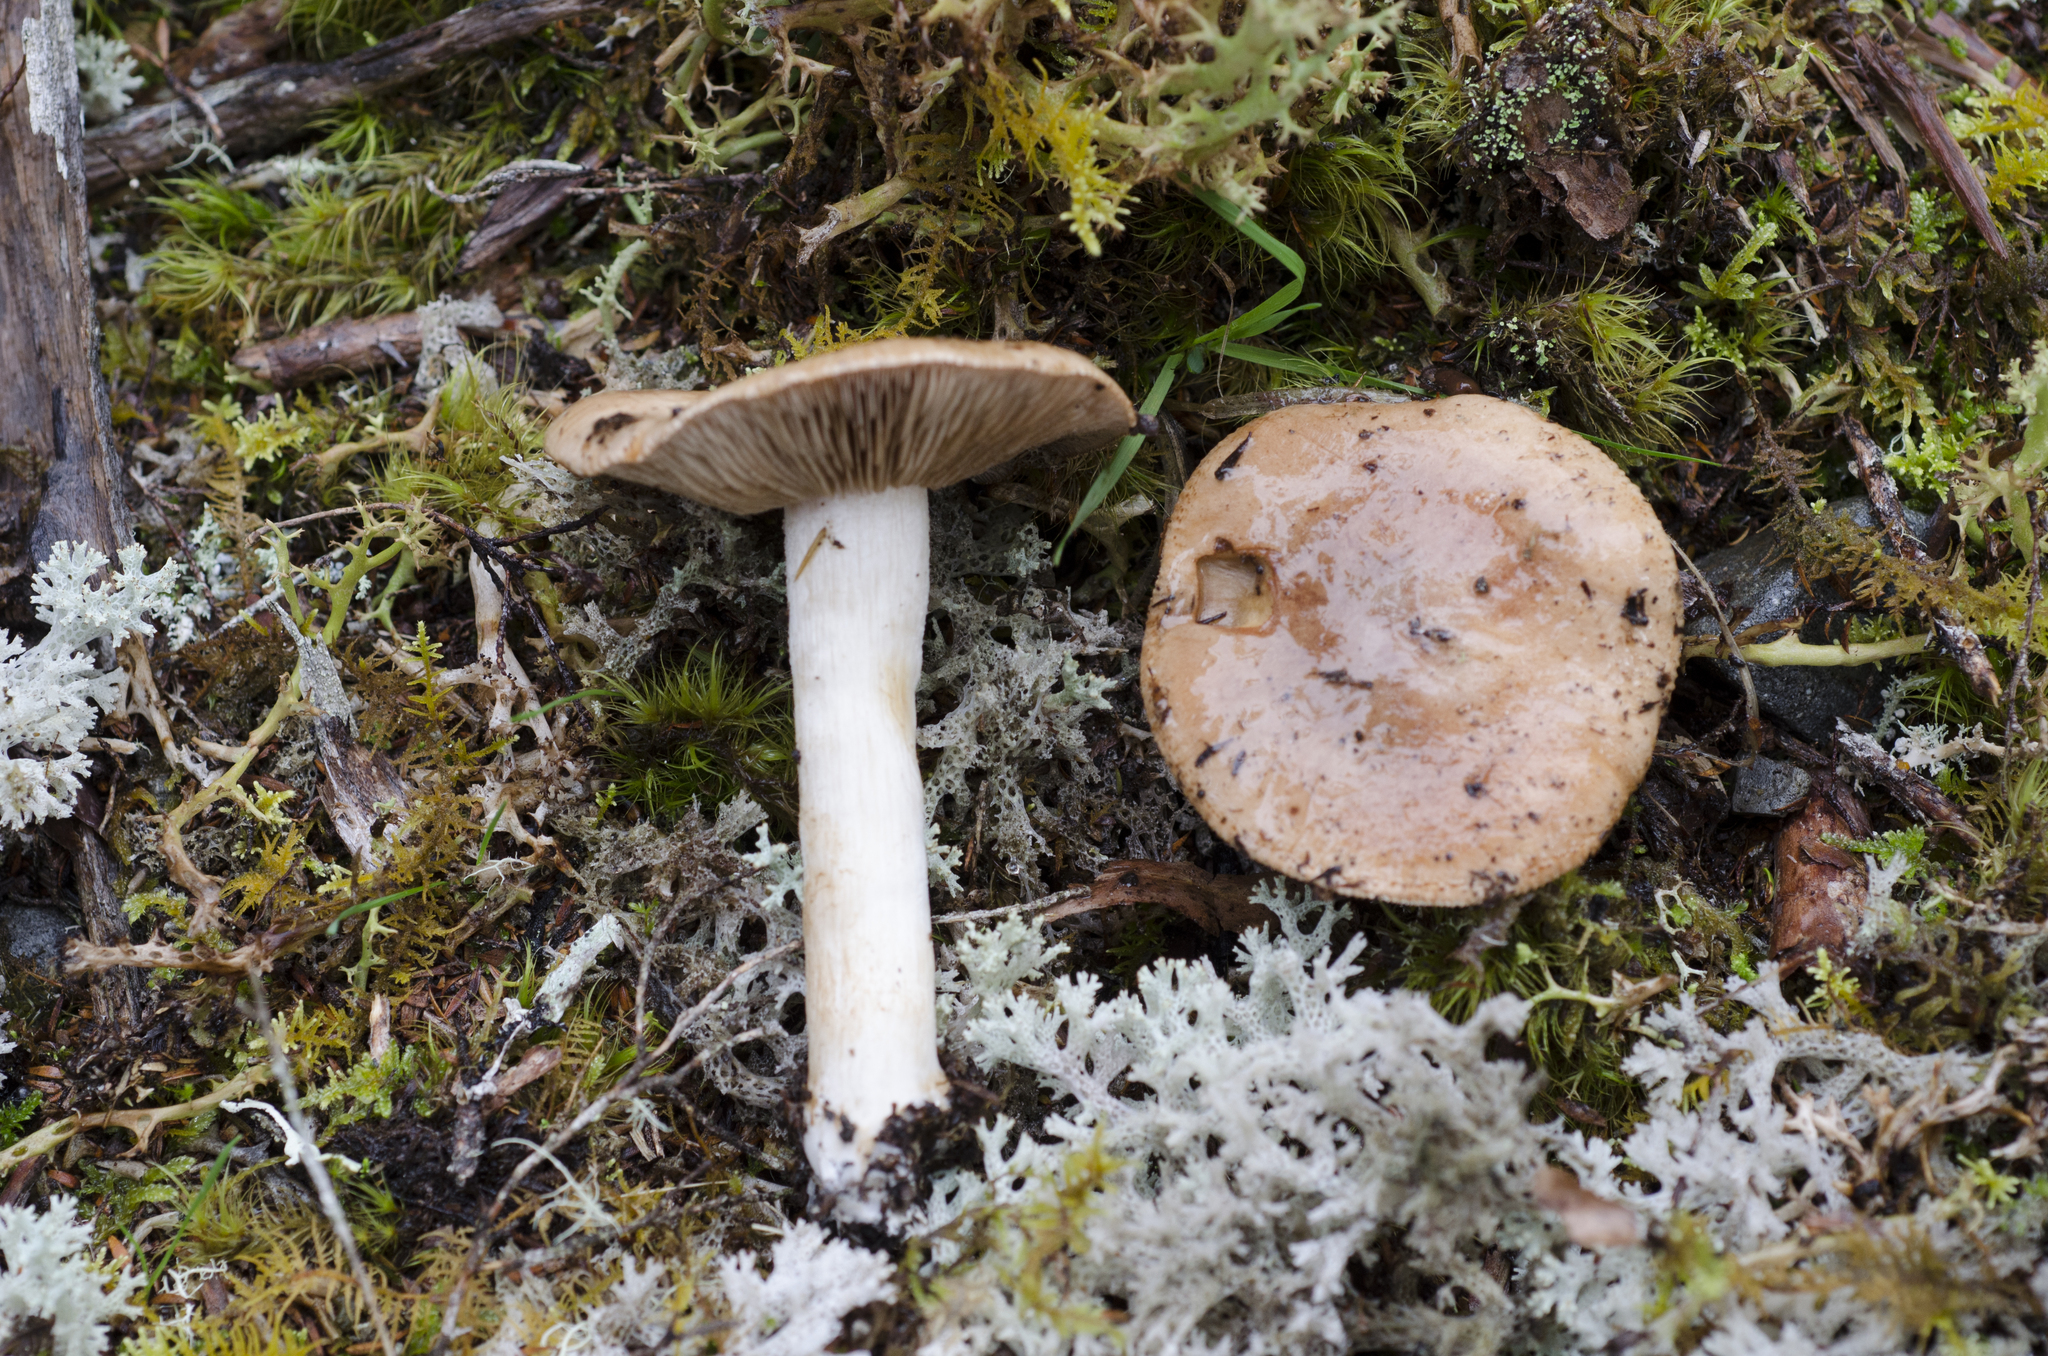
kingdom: Fungi
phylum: Basidiomycota
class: Agaricomycetes
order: Agaricales
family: Hymenogastraceae
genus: Hebeloma
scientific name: Hebeloma lacteocoffeatum
